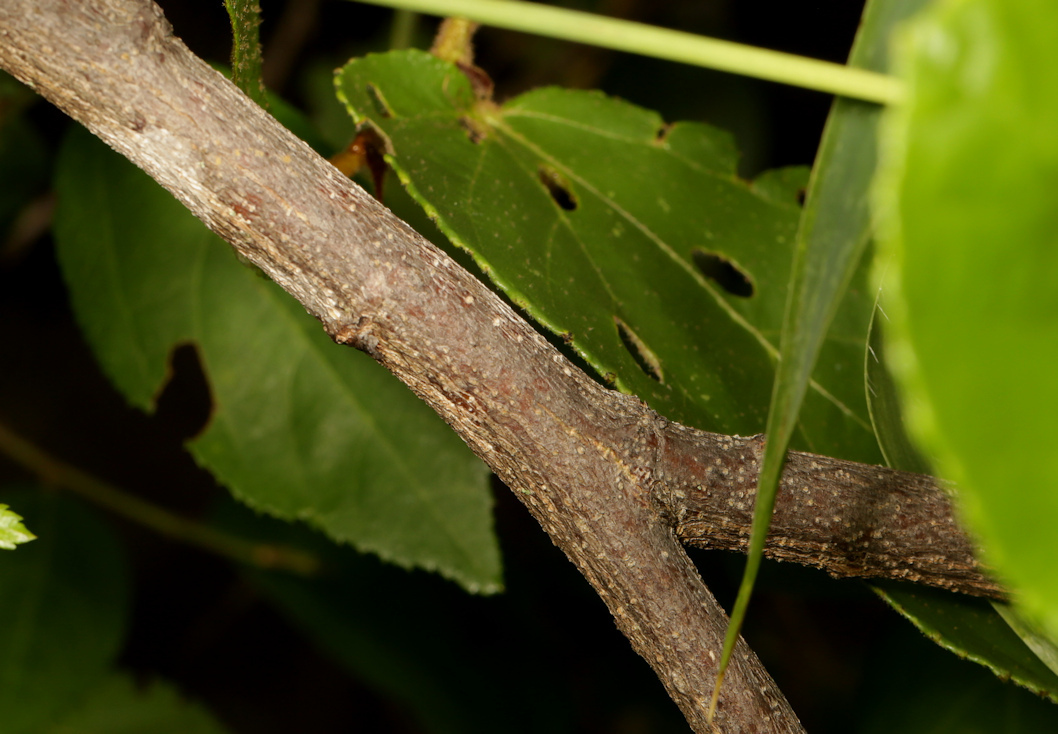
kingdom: Plantae
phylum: Tracheophyta
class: Magnoliopsida
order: Malvales
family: Malvaceae
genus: Grewia
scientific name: Grewia hexamita
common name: Giant raisin
